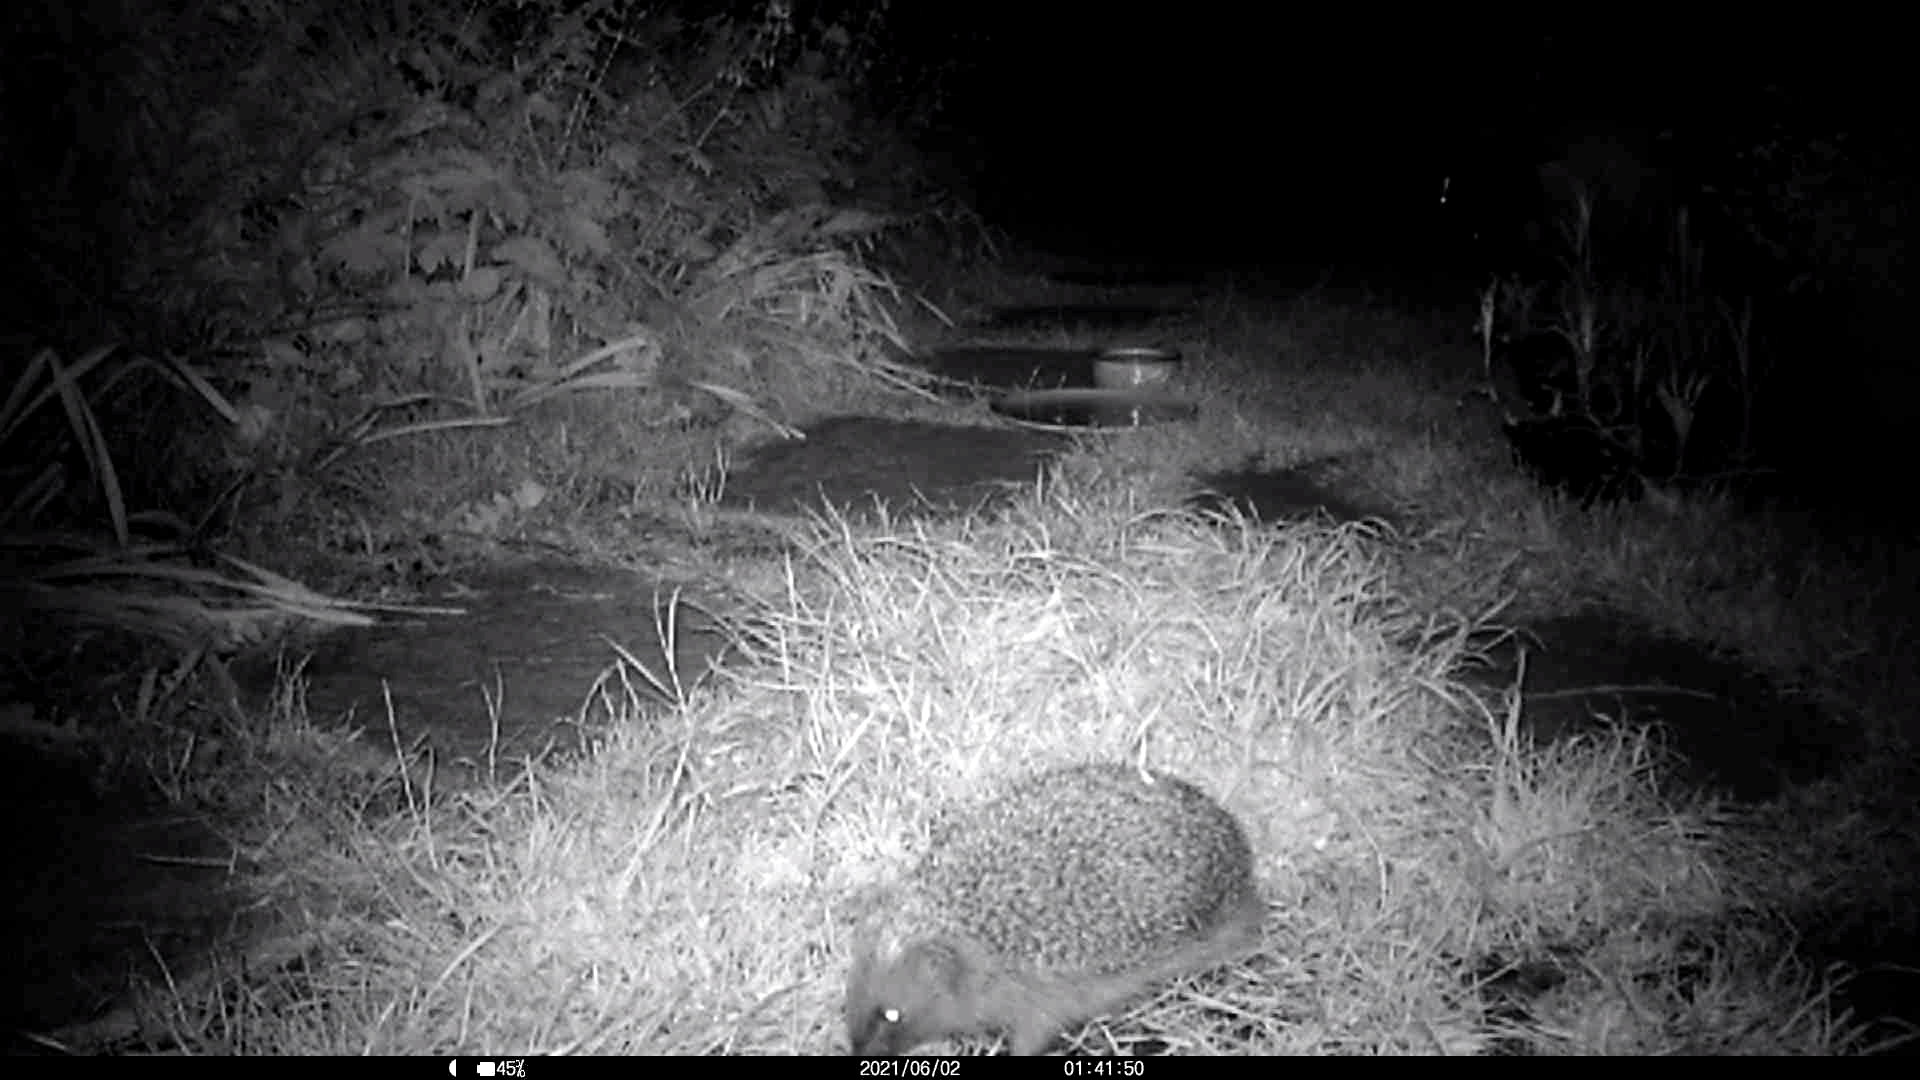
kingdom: Animalia
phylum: Chordata
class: Mammalia
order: Erinaceomorpha
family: Erinaceidae
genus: Erinaceus
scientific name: Erinaceus europaeus
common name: West european hedgehog
